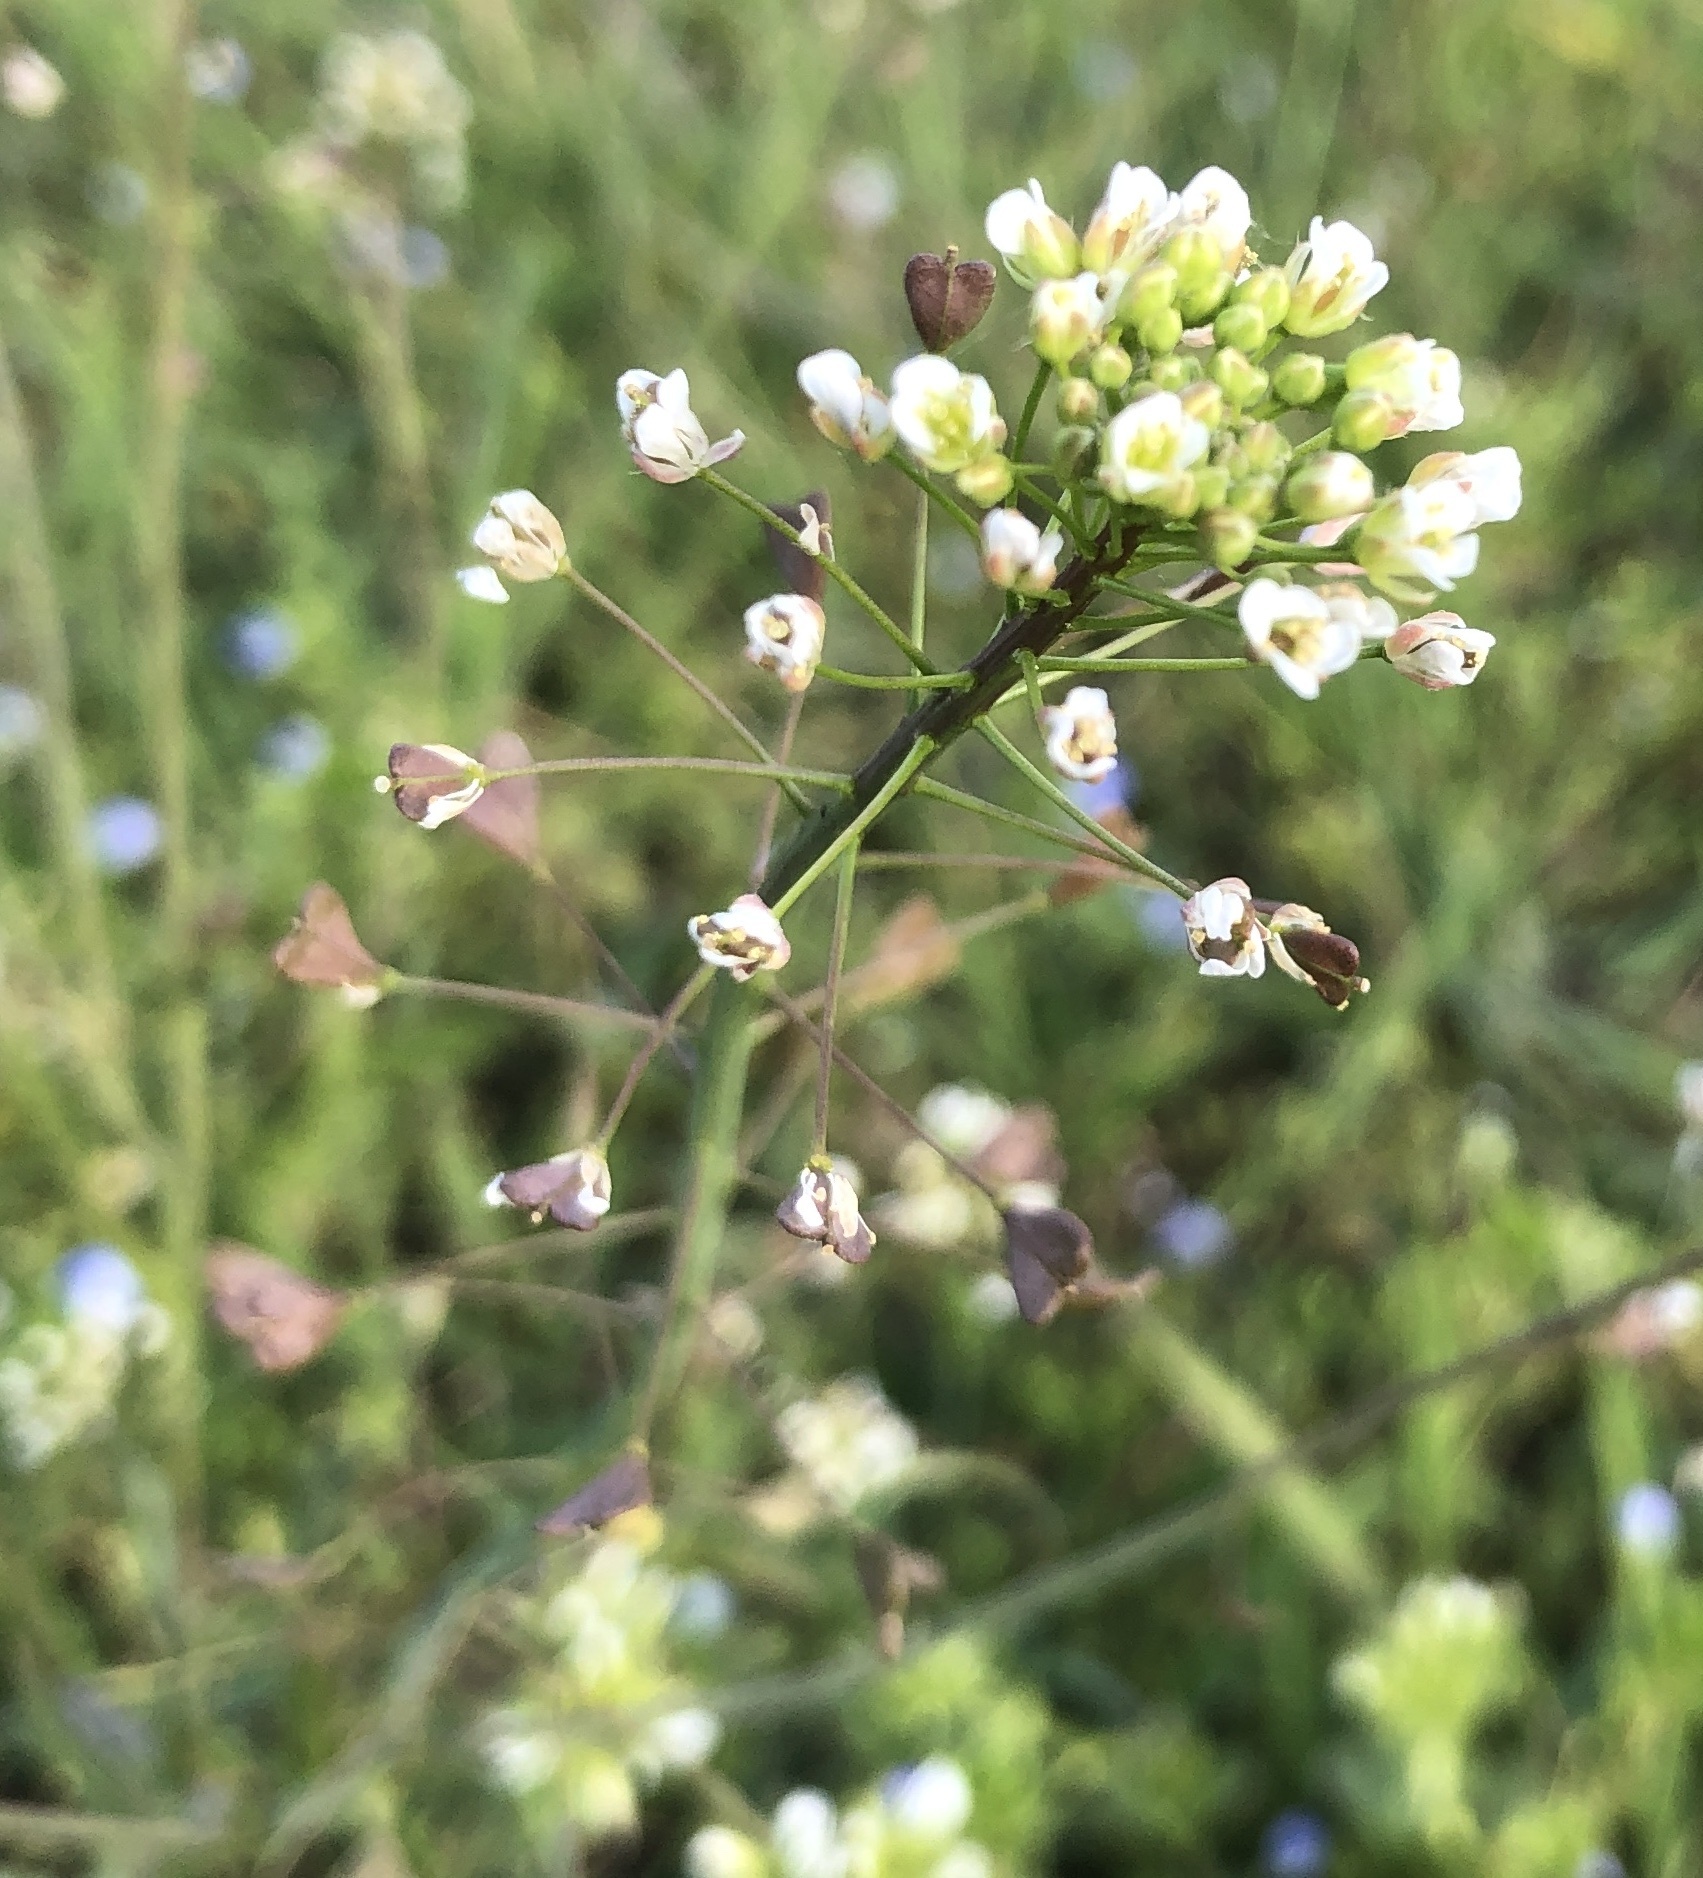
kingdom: Plantae
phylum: Tracheophyta
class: Magnoliopsida
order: Brassicales
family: Brassicaceae
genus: Capsella
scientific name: Capsella bursa-pastoris
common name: Shepherd's purse
